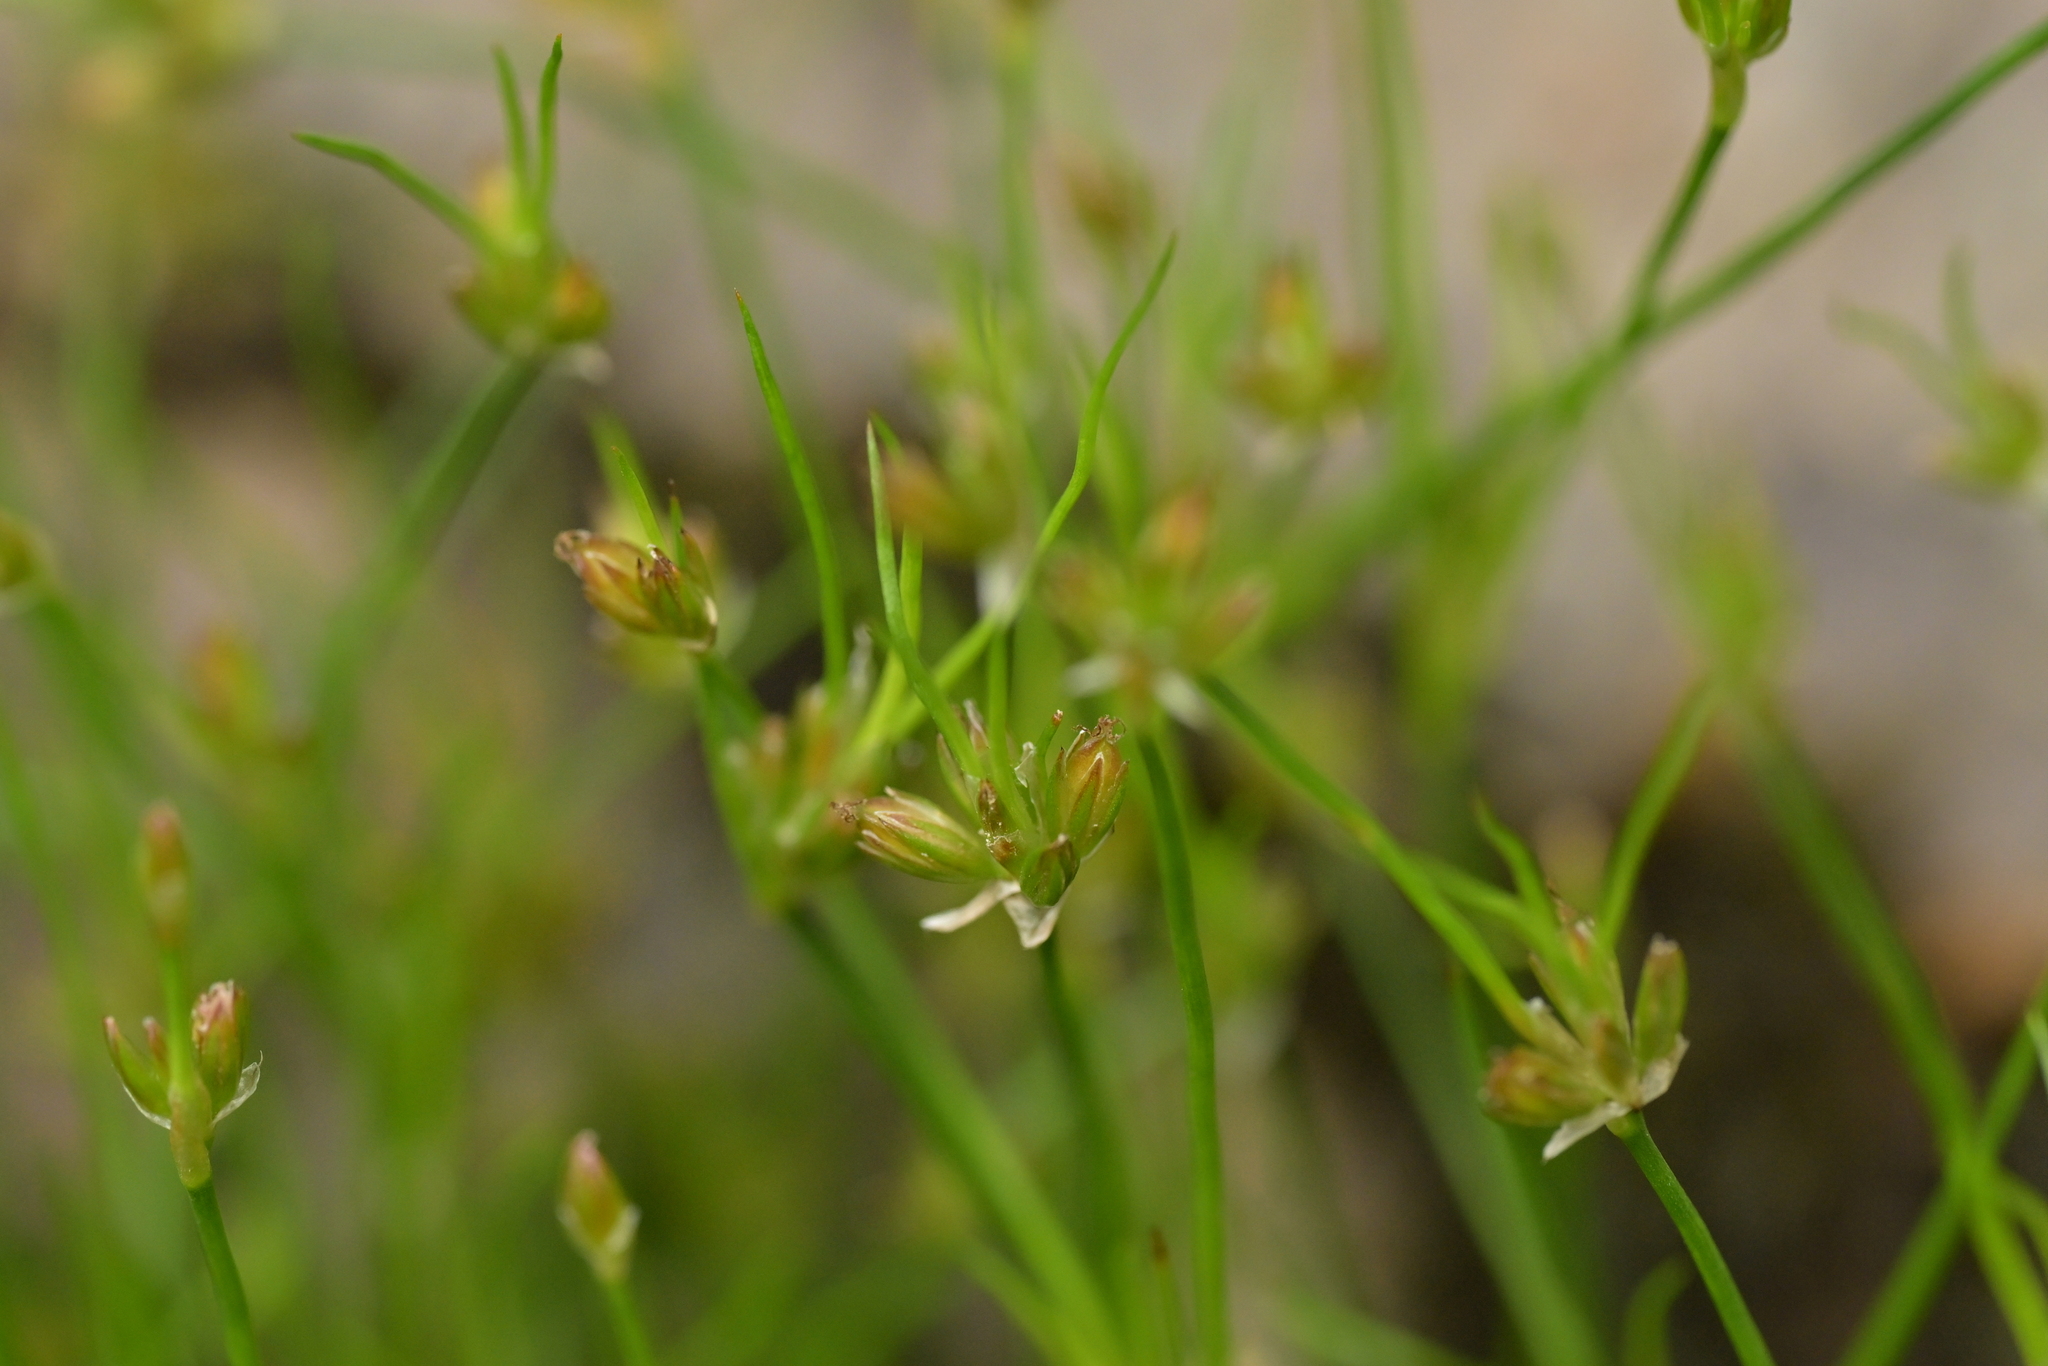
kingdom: Plantae
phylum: Tracheophyta
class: Liliopsida
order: Poales
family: Juncaceae
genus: Juncus
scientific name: Juncus bufonius
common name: Toad rush
